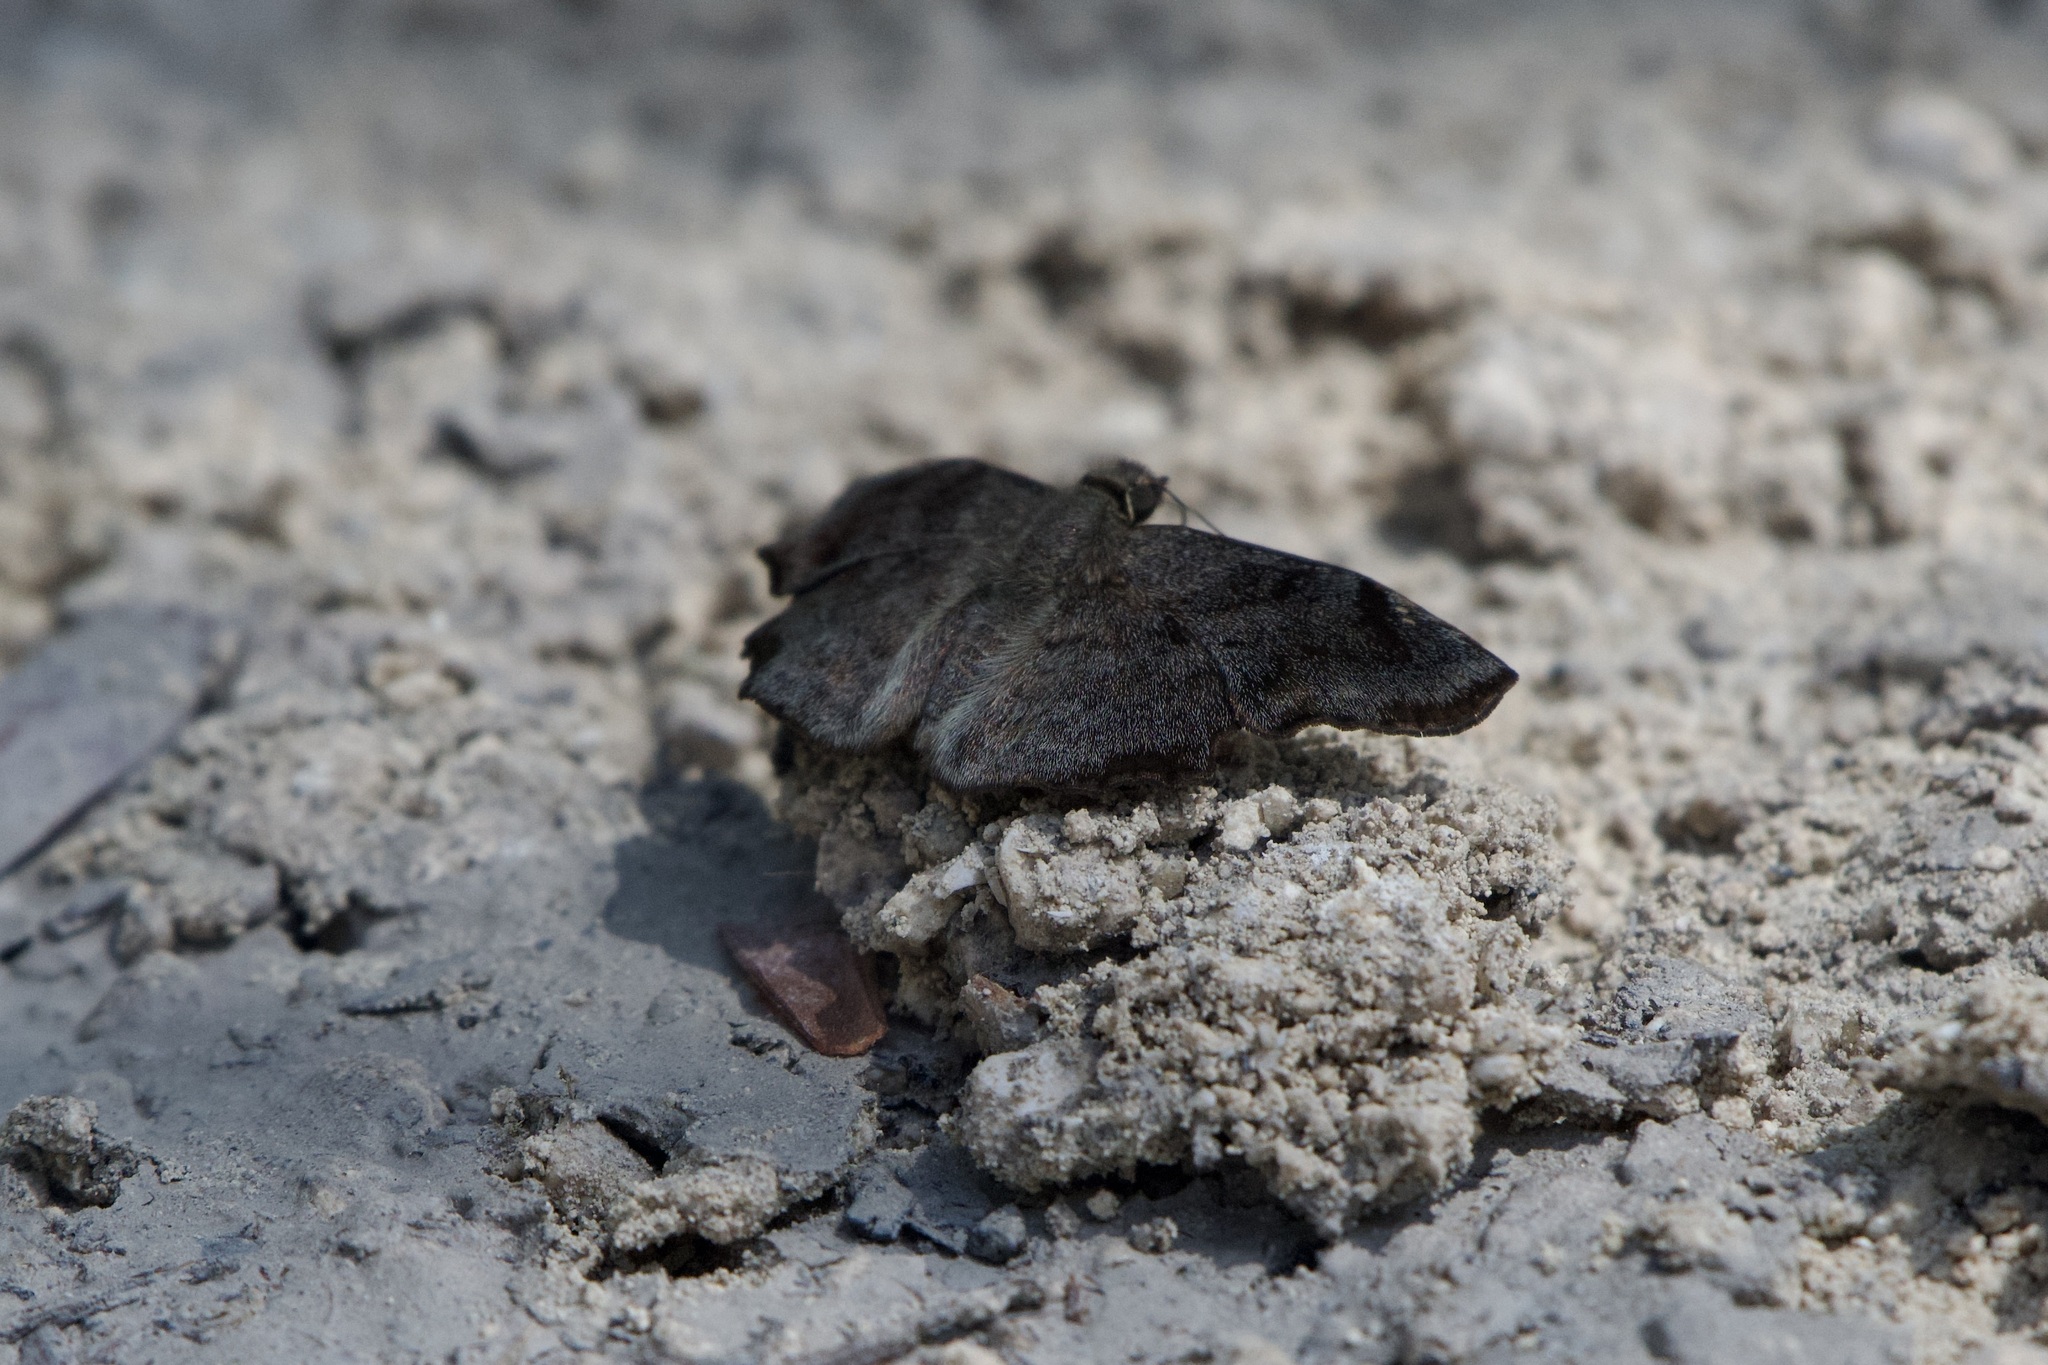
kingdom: Animalia
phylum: Arthropoda
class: Insecta
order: Lepidoptera
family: Hesperiidae
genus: Antigonus
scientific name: Antigonus erosus
